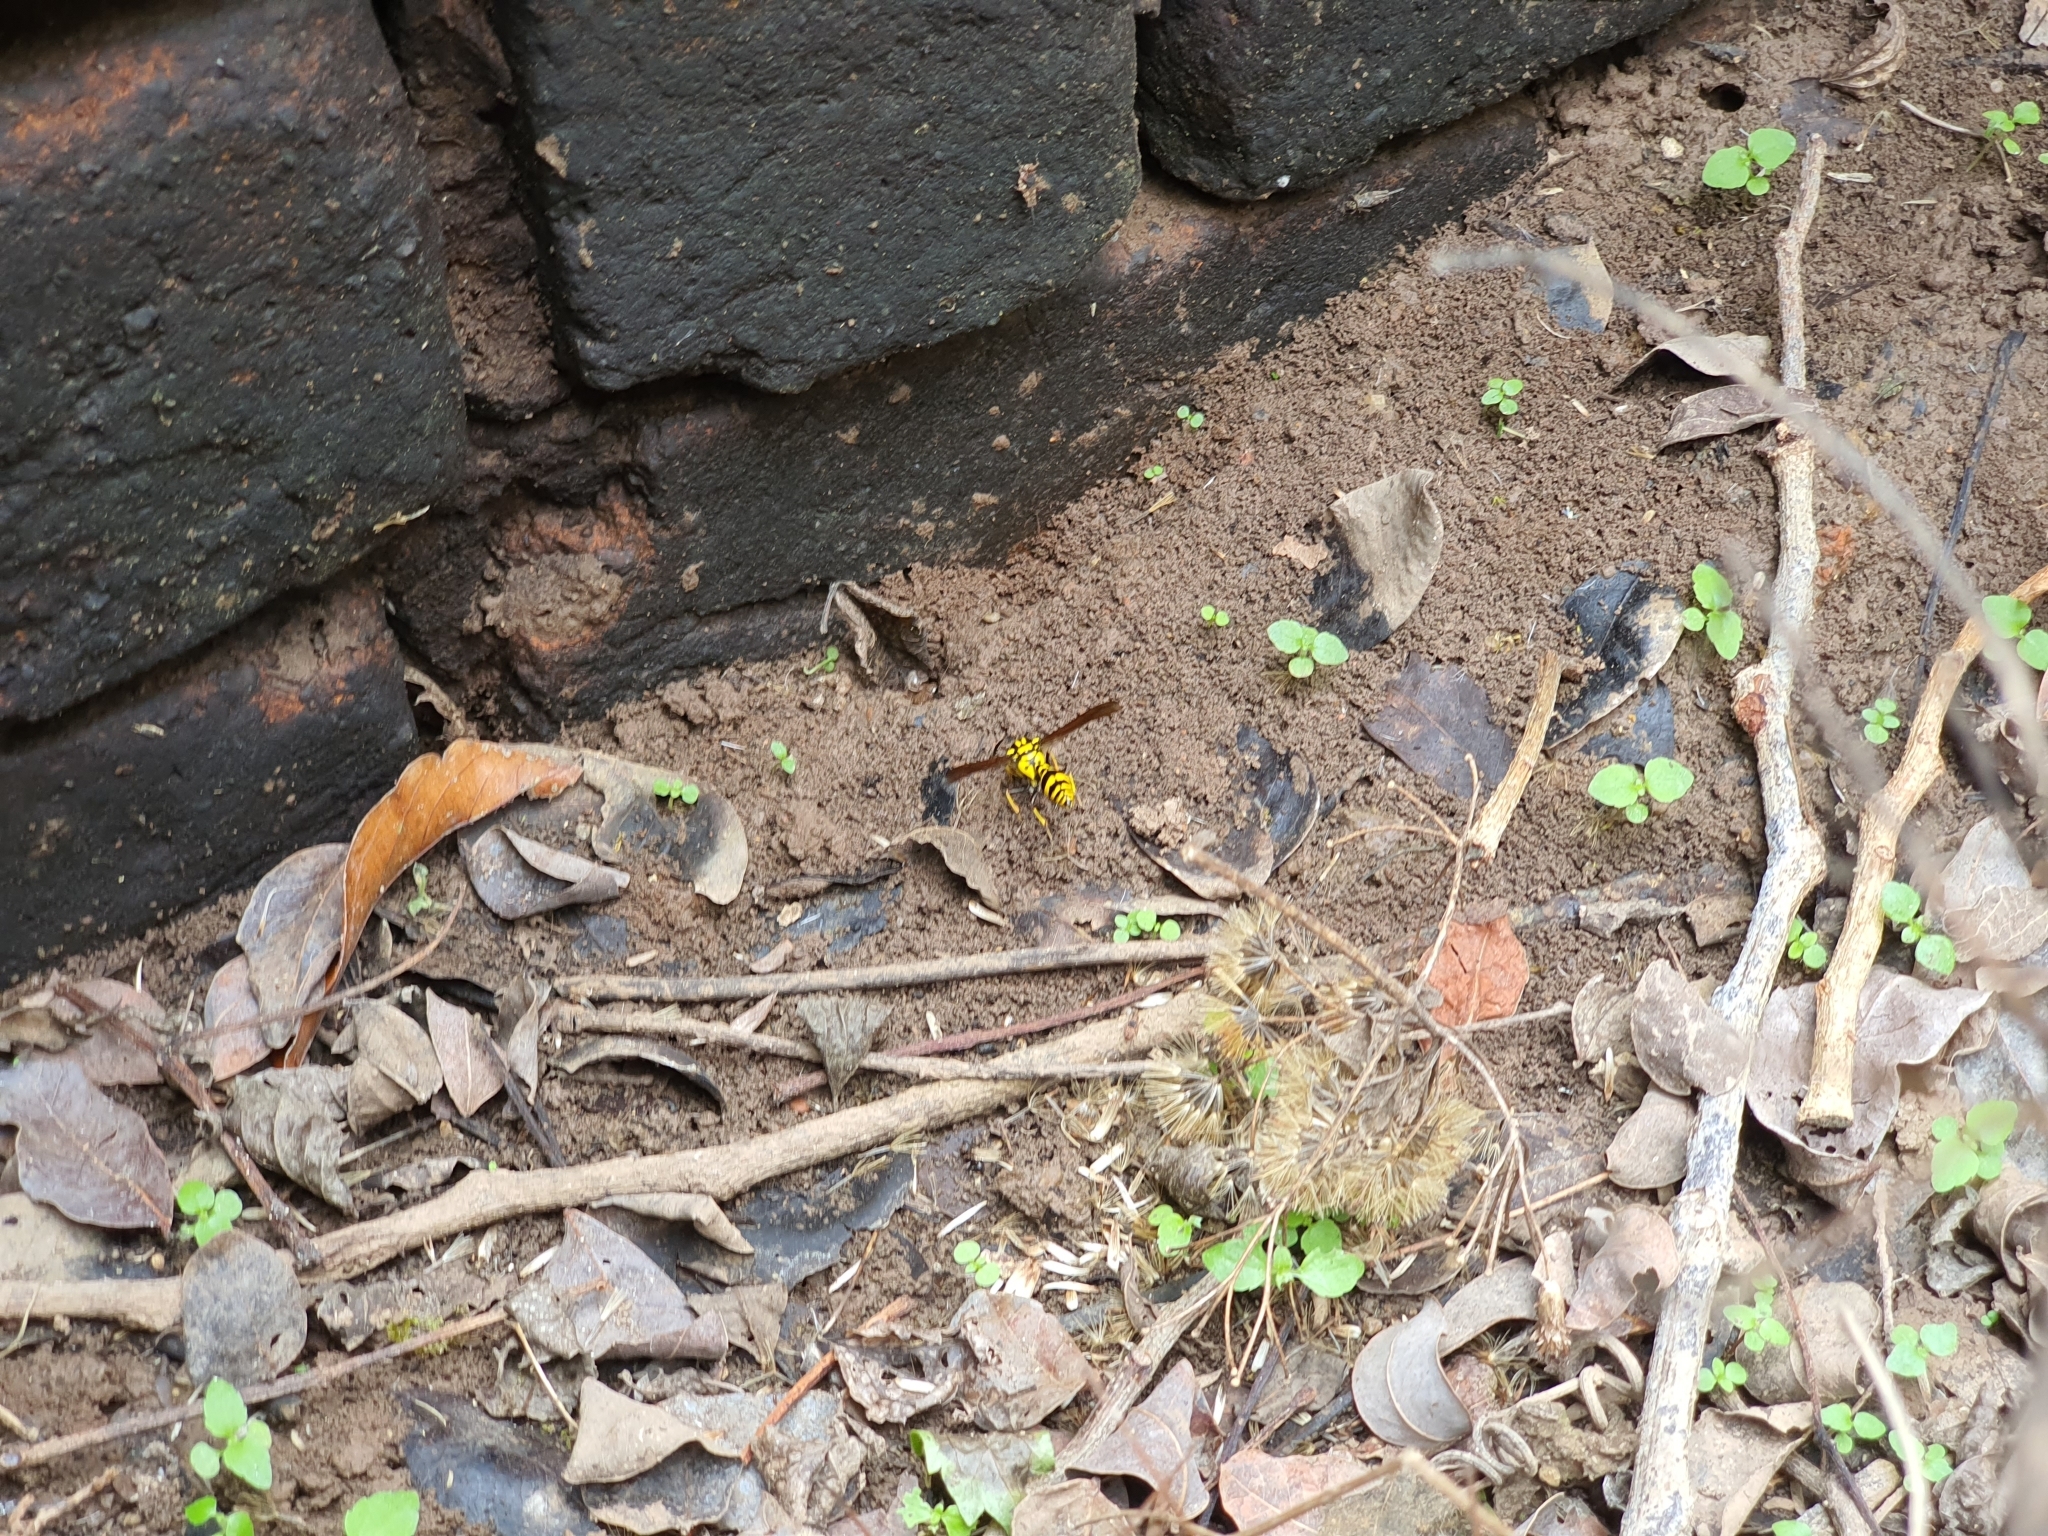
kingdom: Animalia
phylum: Arthropoda
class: Insecta
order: Hymenoptera
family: Eumenidae
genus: Phimenes
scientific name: Phimenes flavopictus
